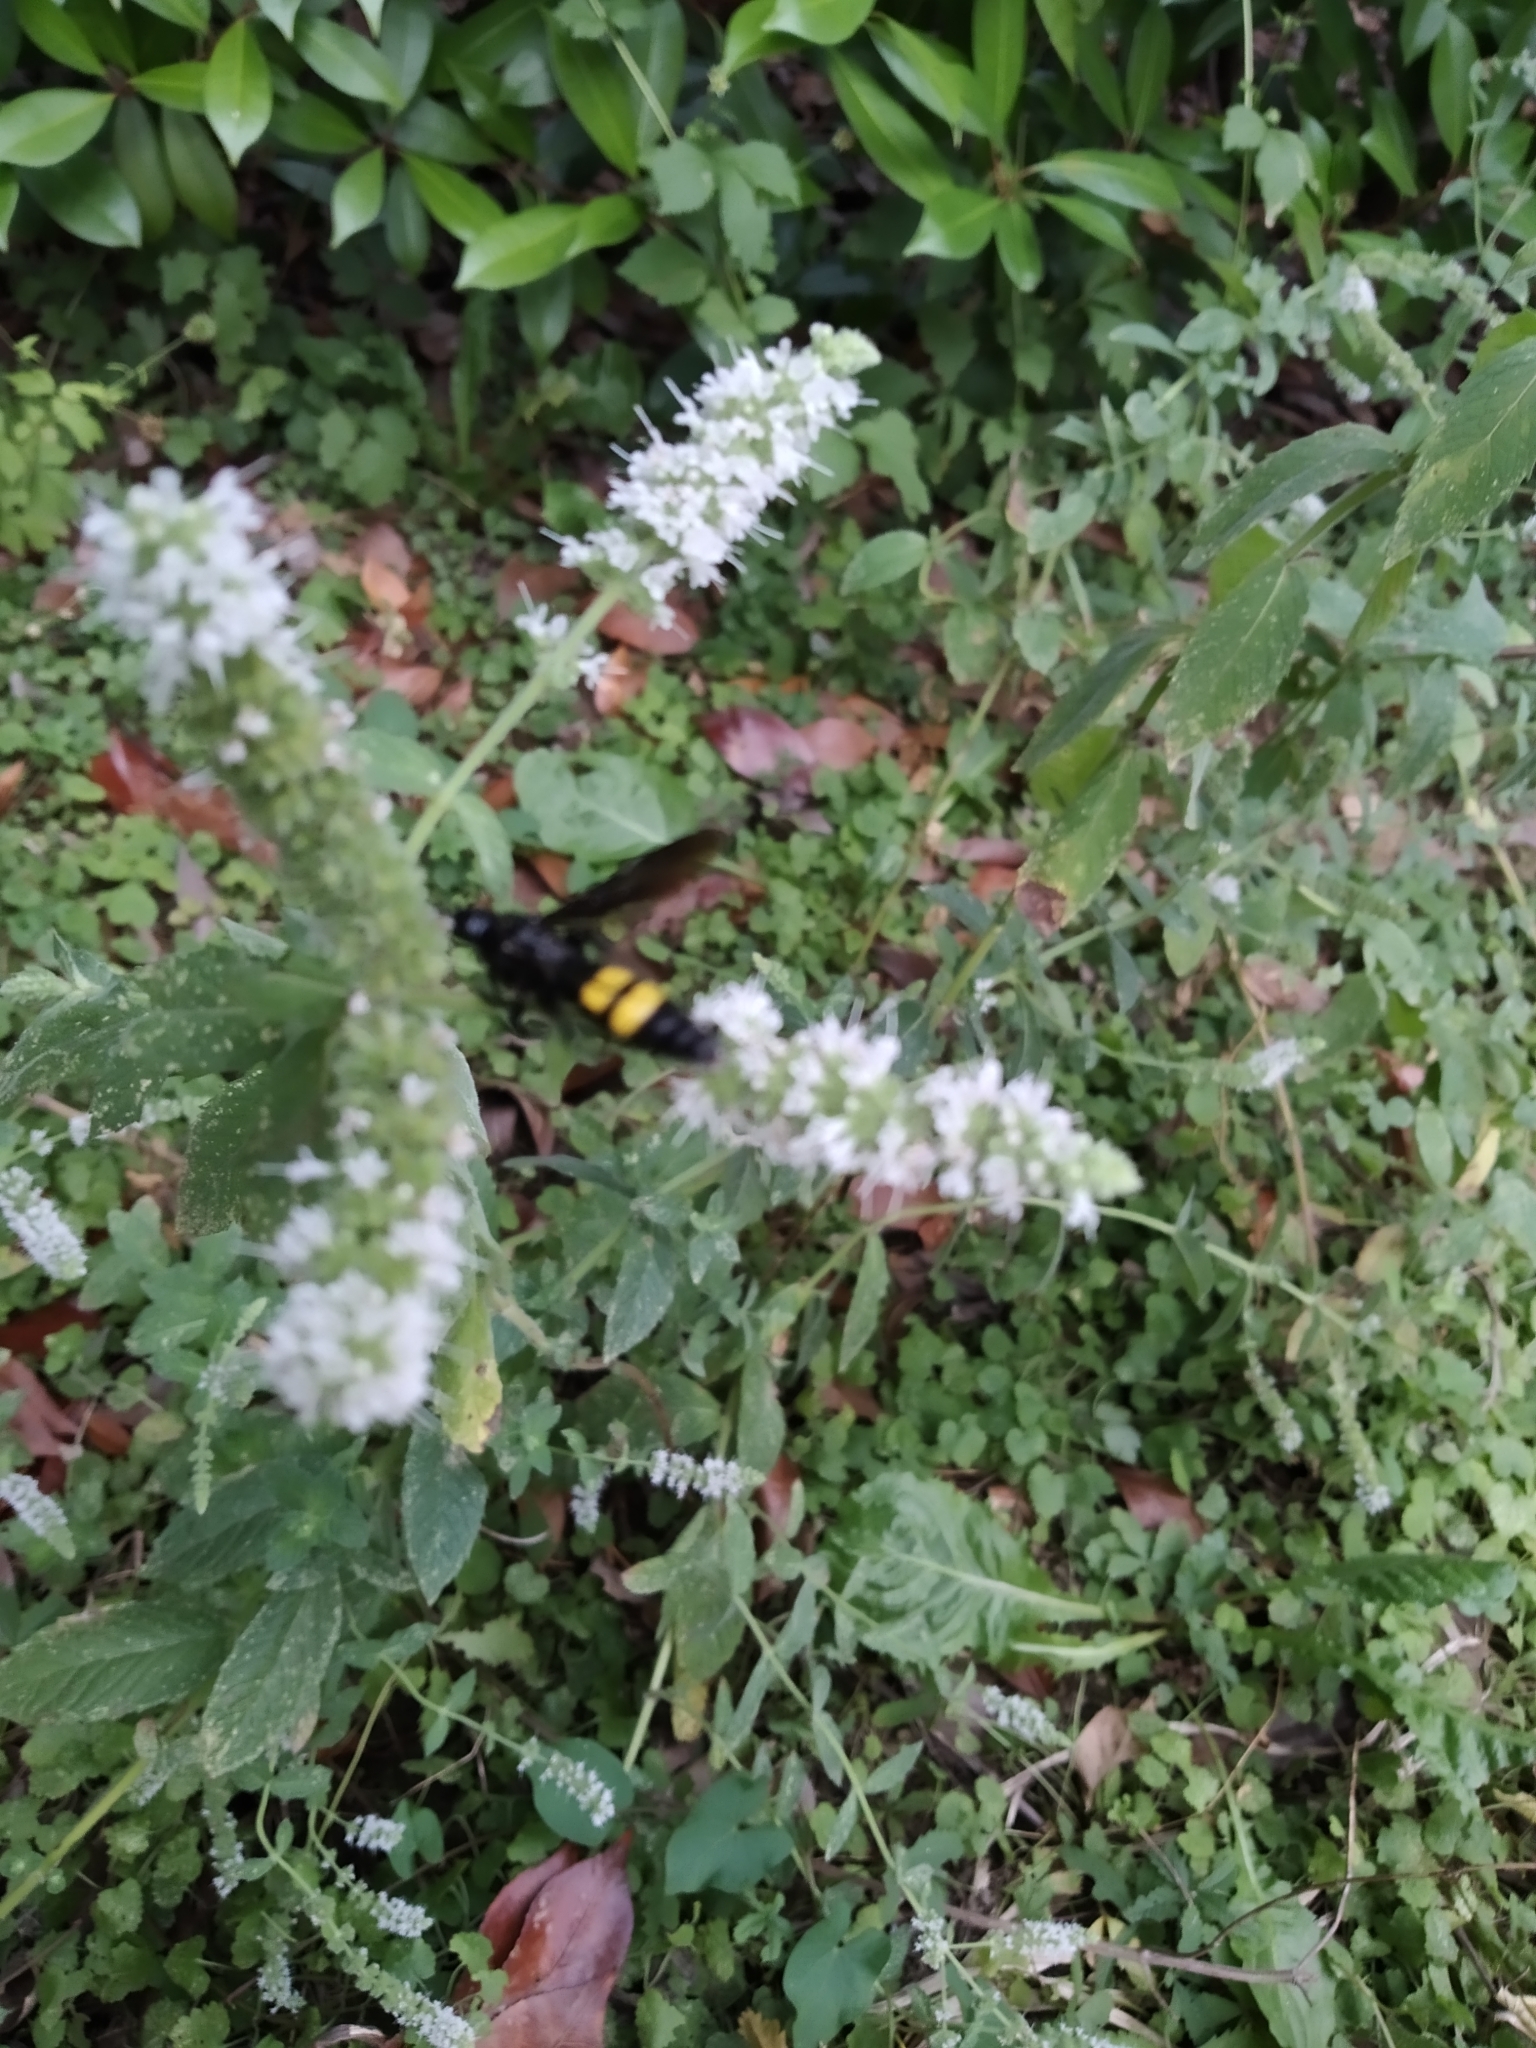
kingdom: Animalia
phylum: Arthropoda
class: Insecta
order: Hymenoptera
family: Scoliidae
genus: Scolia
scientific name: Scolia hirta
